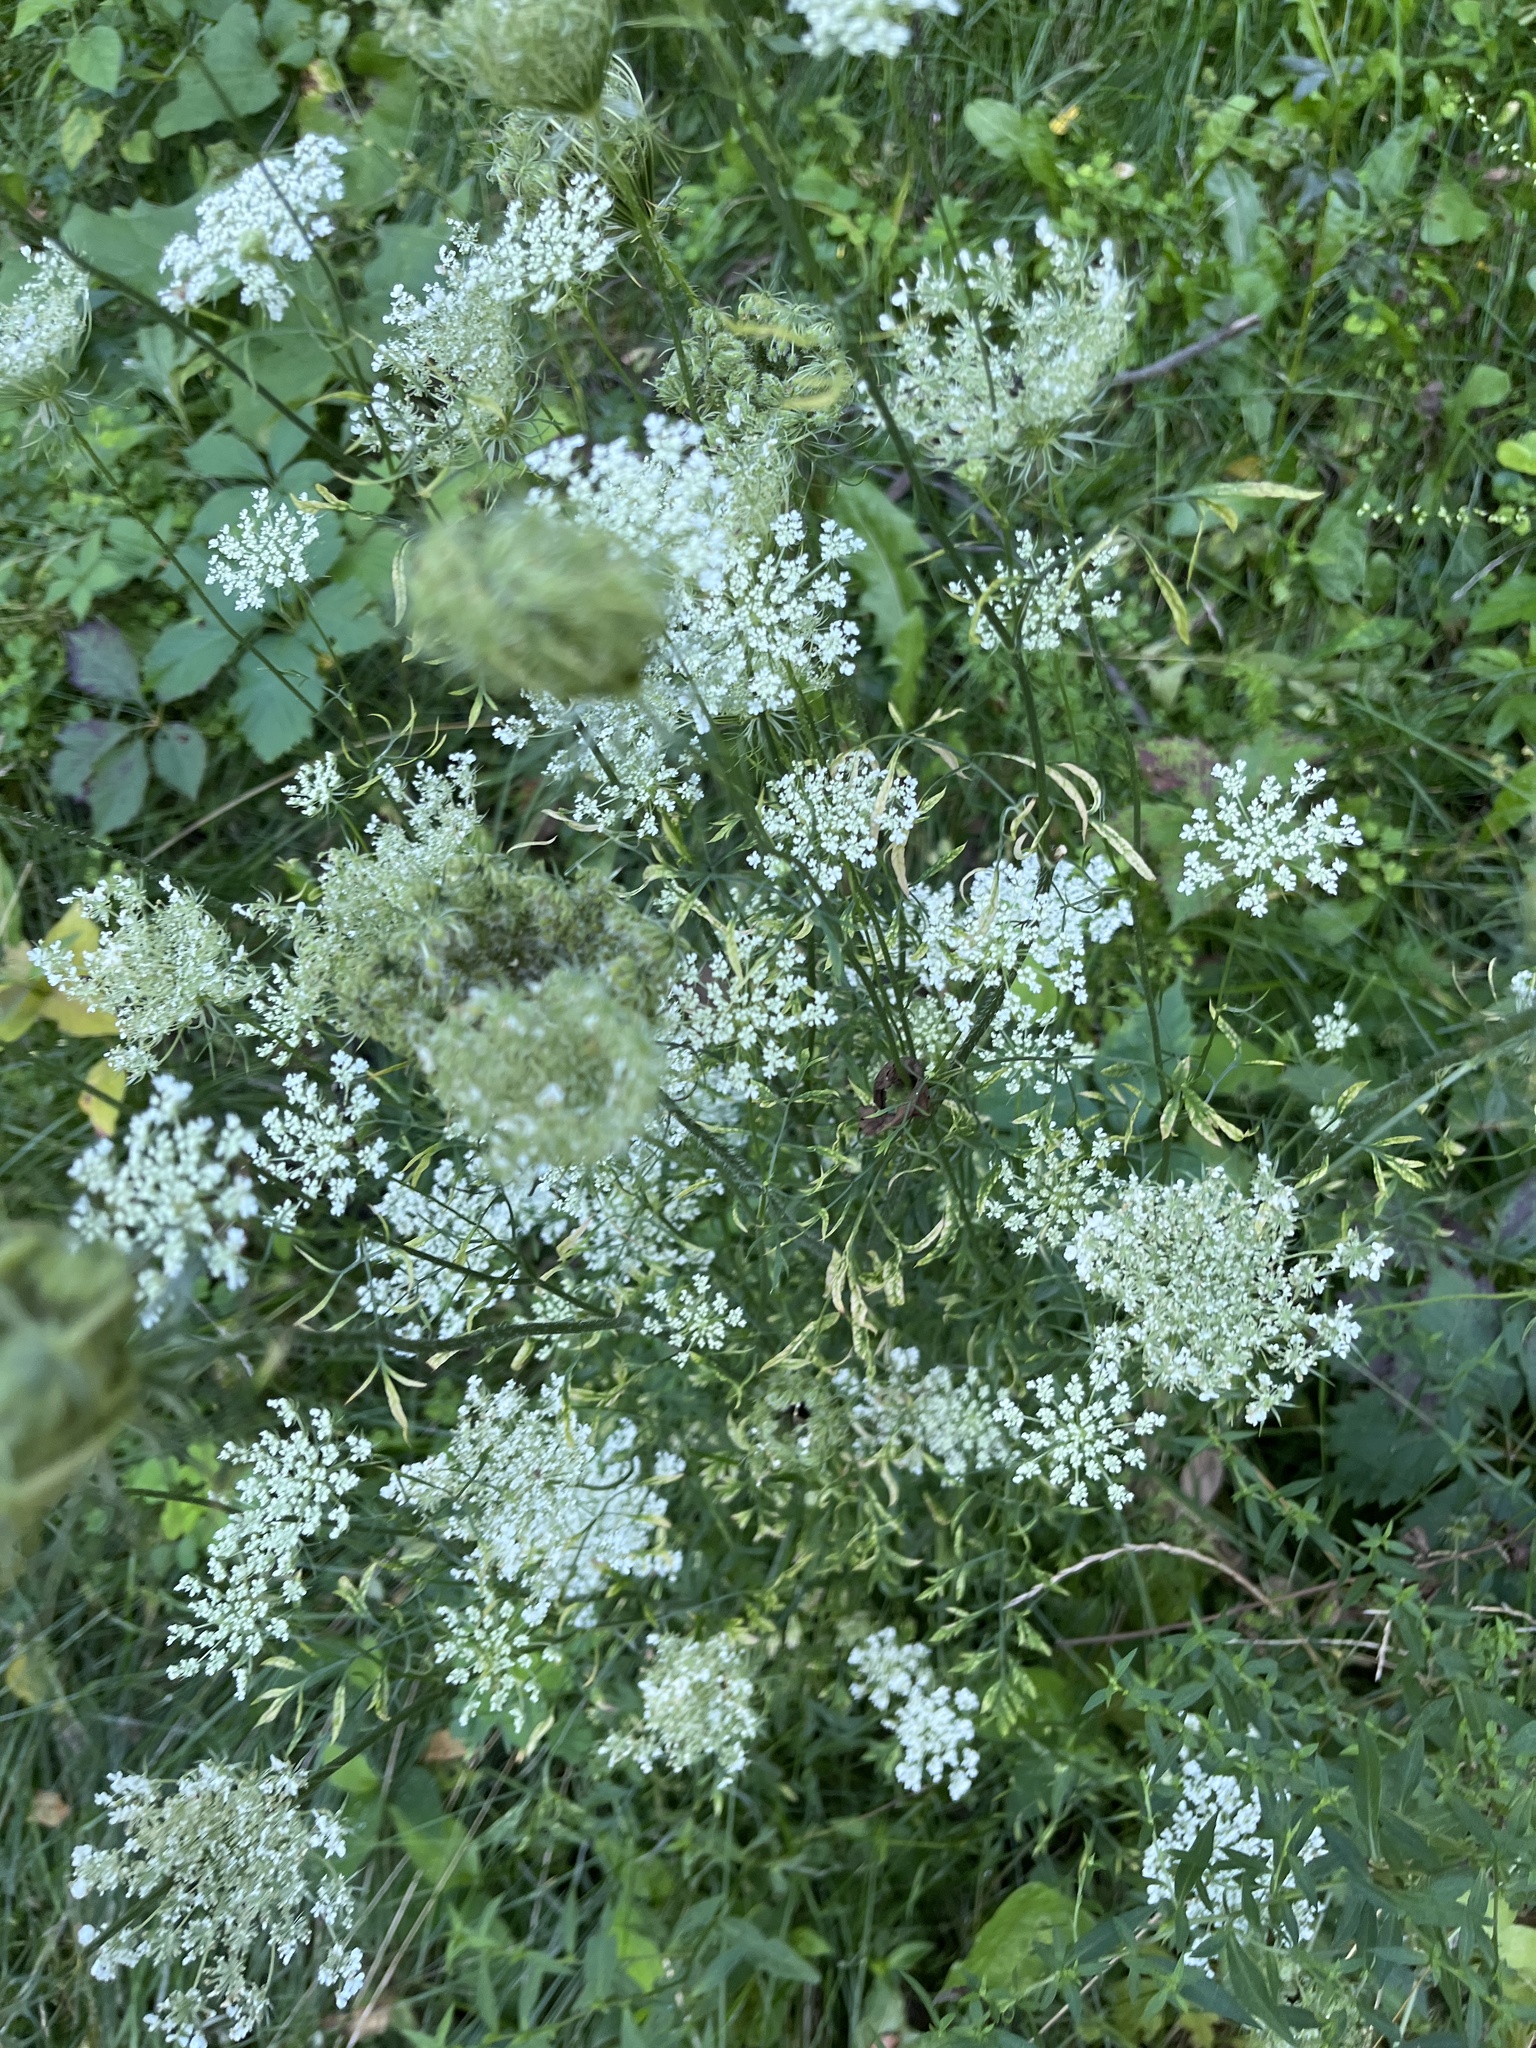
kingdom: Plantae
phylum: Tracheophyta
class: Magnoliopsida
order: Apiales
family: Apiaceae
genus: Daucus
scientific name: Daucus carota
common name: Wild carrot
